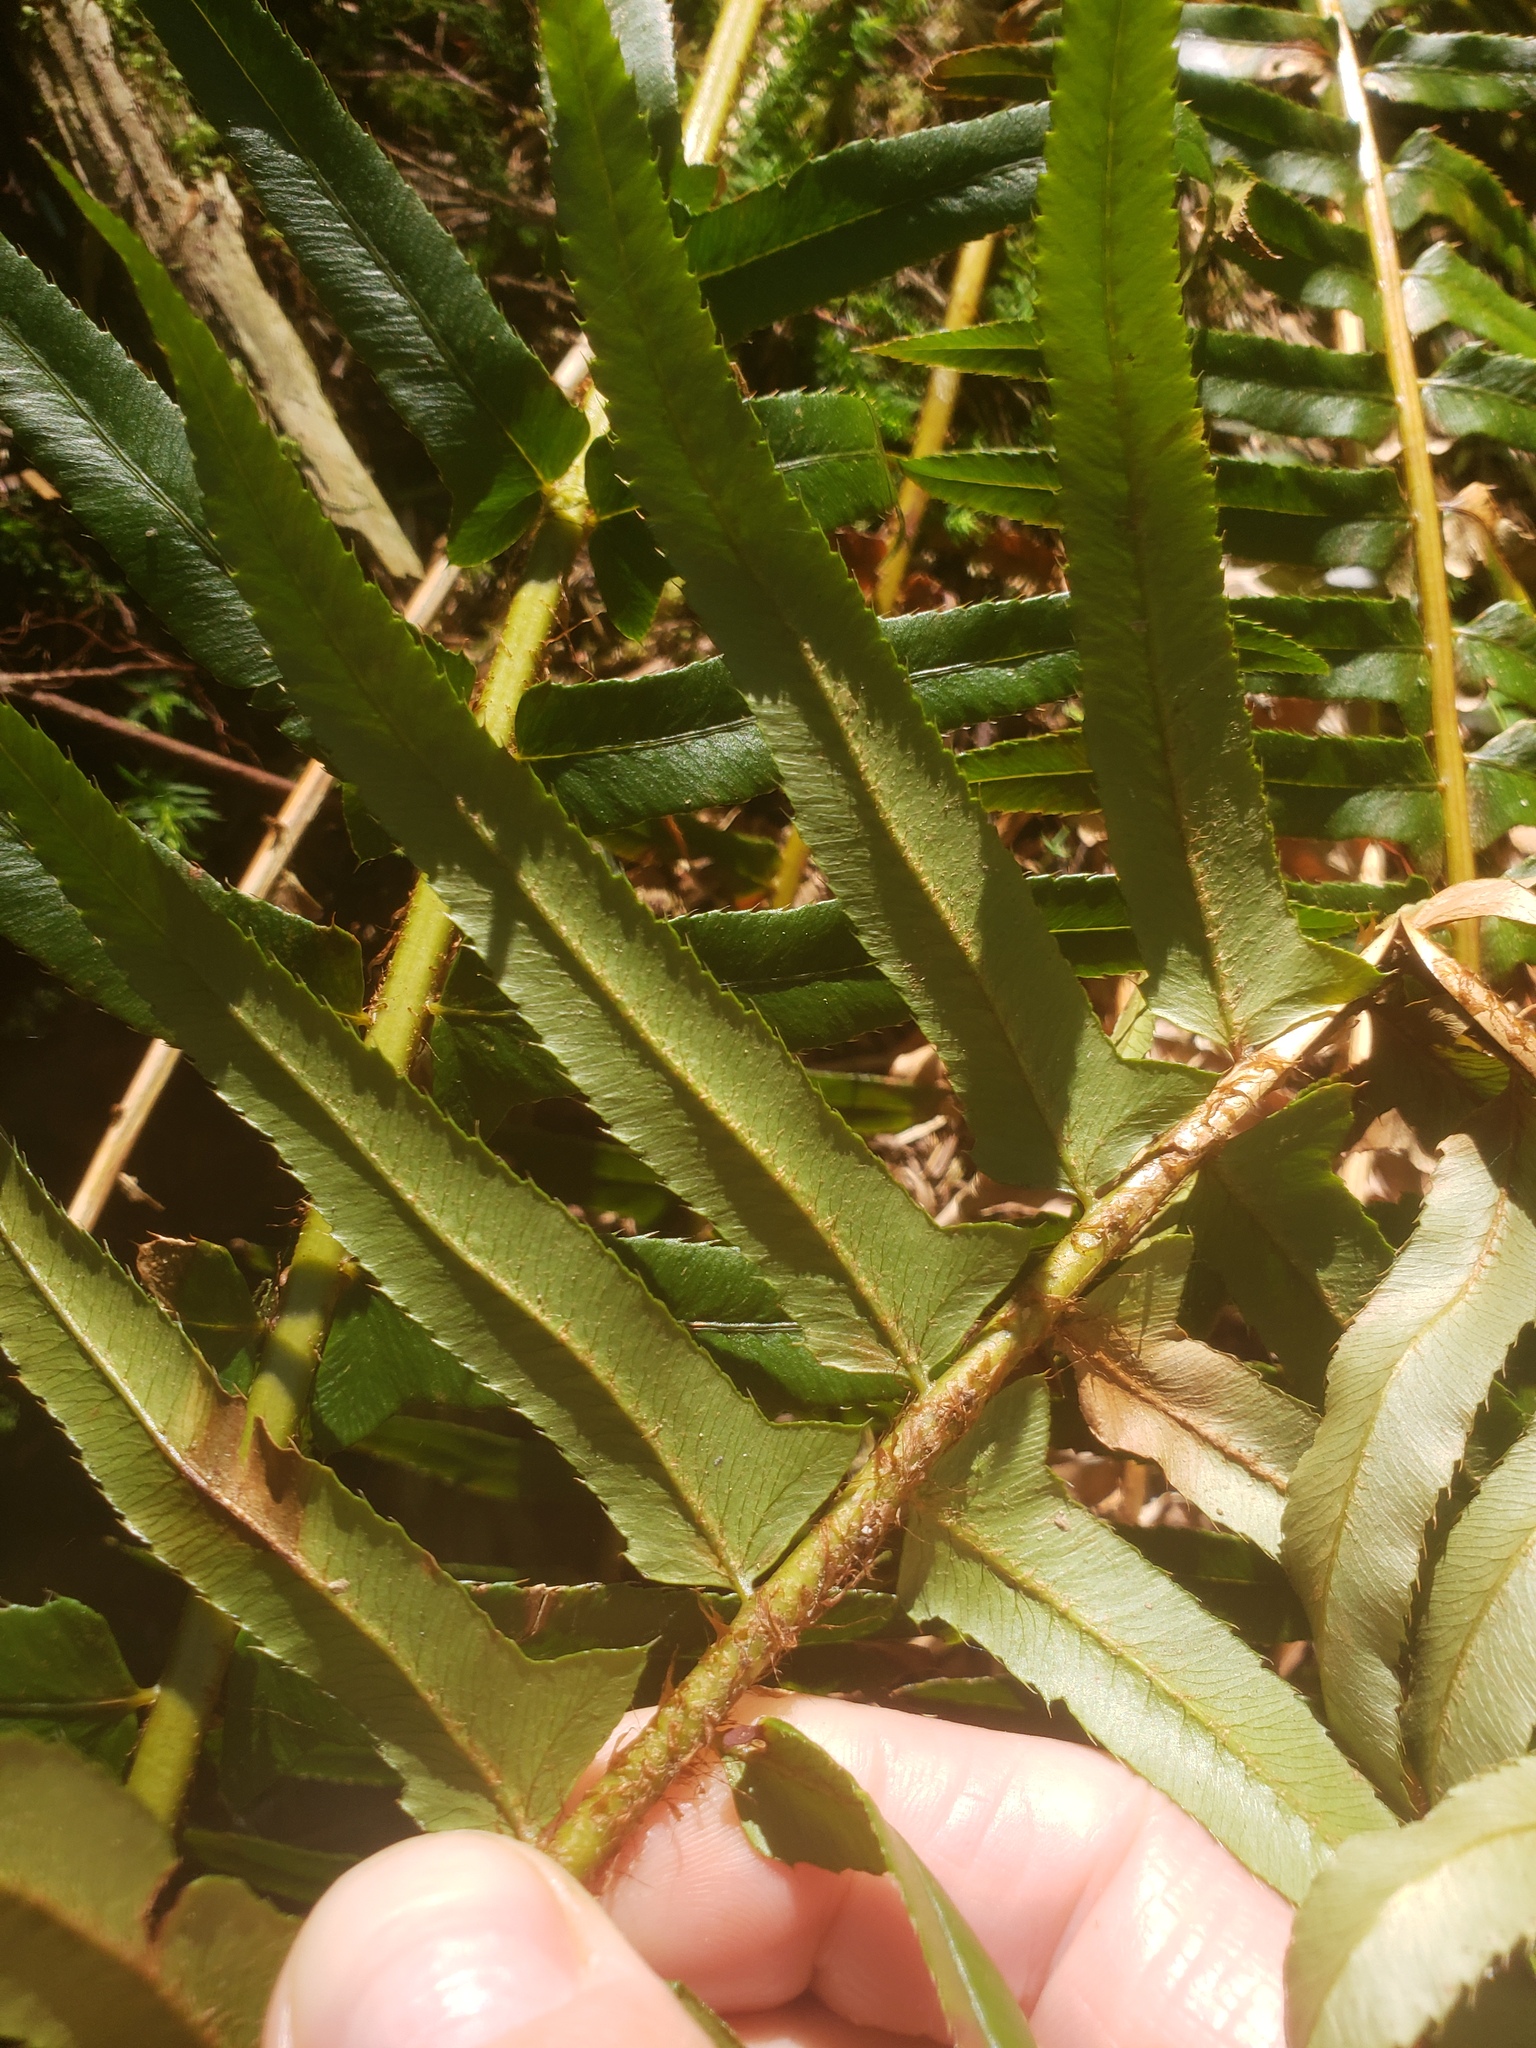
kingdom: Plantae
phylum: Tracheophyta
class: Polypodiopsida
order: Polypodiales
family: Dryopteridaceae
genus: Polystichum
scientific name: Polystichum munitum
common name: Western sword-fern
